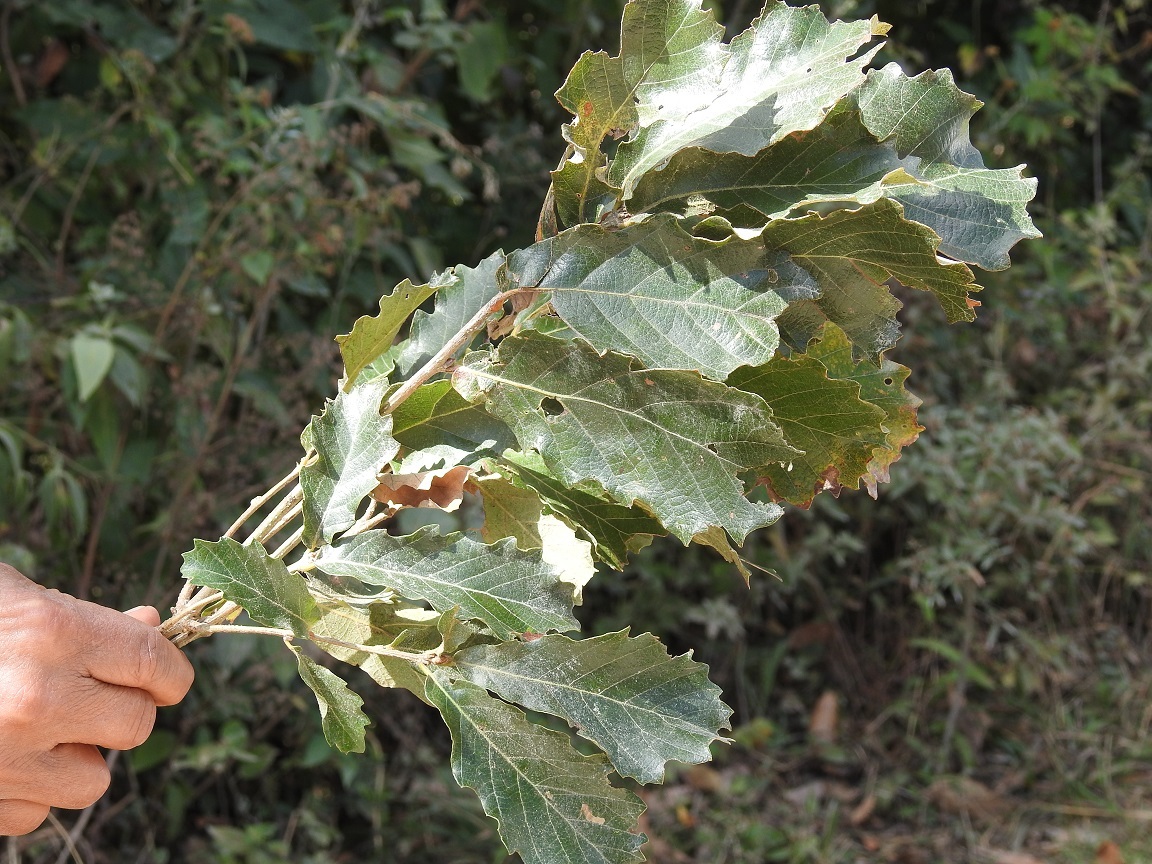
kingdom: Plantae
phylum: Tracheophyta
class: Magnoliopsida
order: Fagales
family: Fagaceae
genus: Quercus
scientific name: Quercus peduncularis
